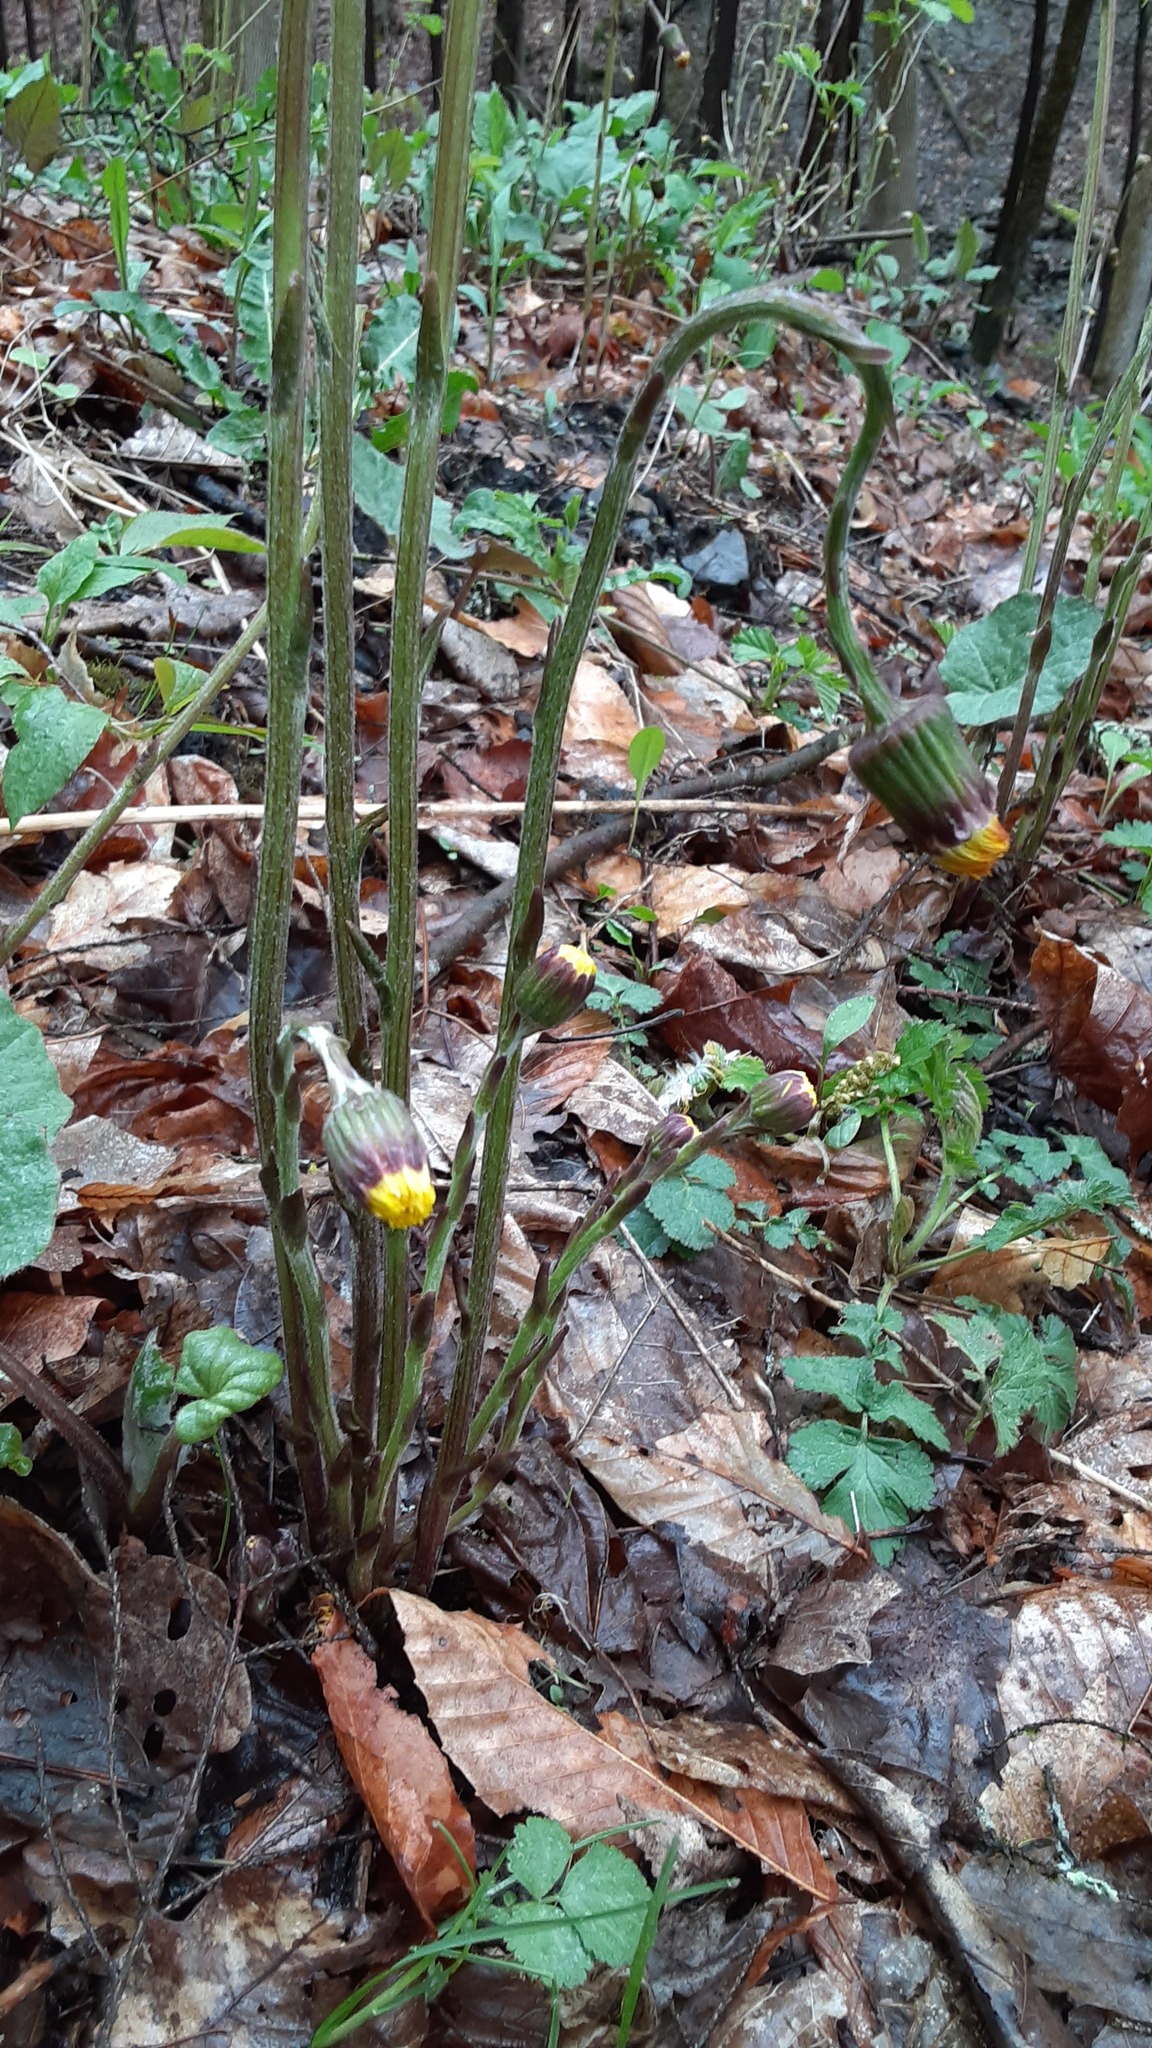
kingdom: Plantae
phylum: Tracheophyta
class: Magnoliopsida
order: Asterales
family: Asteraceae
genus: Tussilago
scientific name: Tussilago farfara
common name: Coltsfoot
